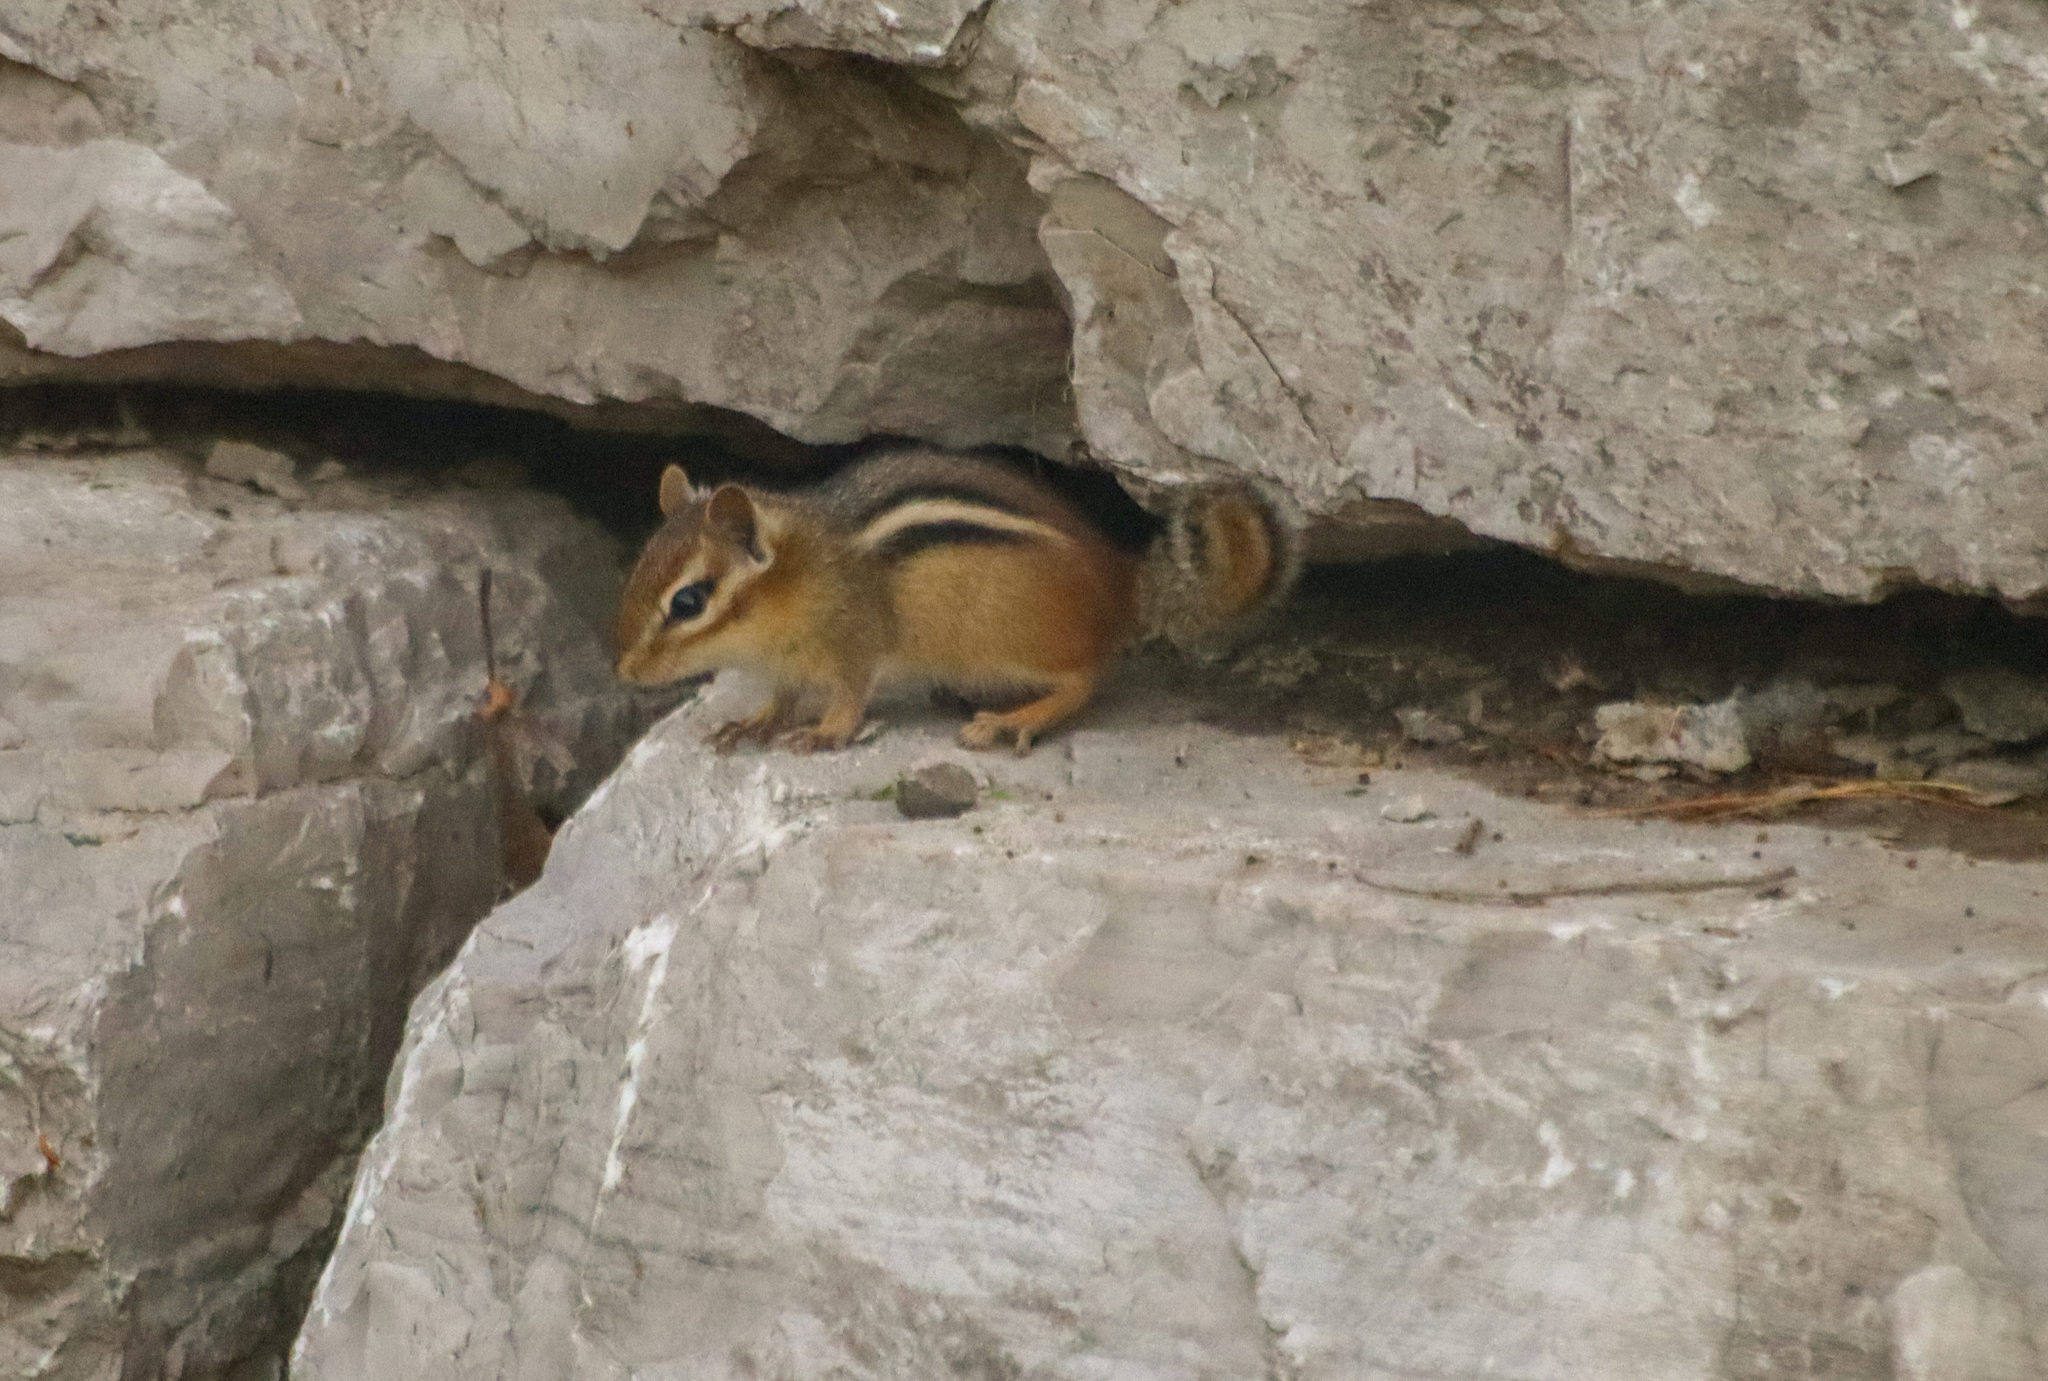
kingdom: Animalia
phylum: Chordata
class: Mammalia
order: Rodentia
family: Sciuridae
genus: Tamias
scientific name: Tamias striatus
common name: Eastern chipmunk
